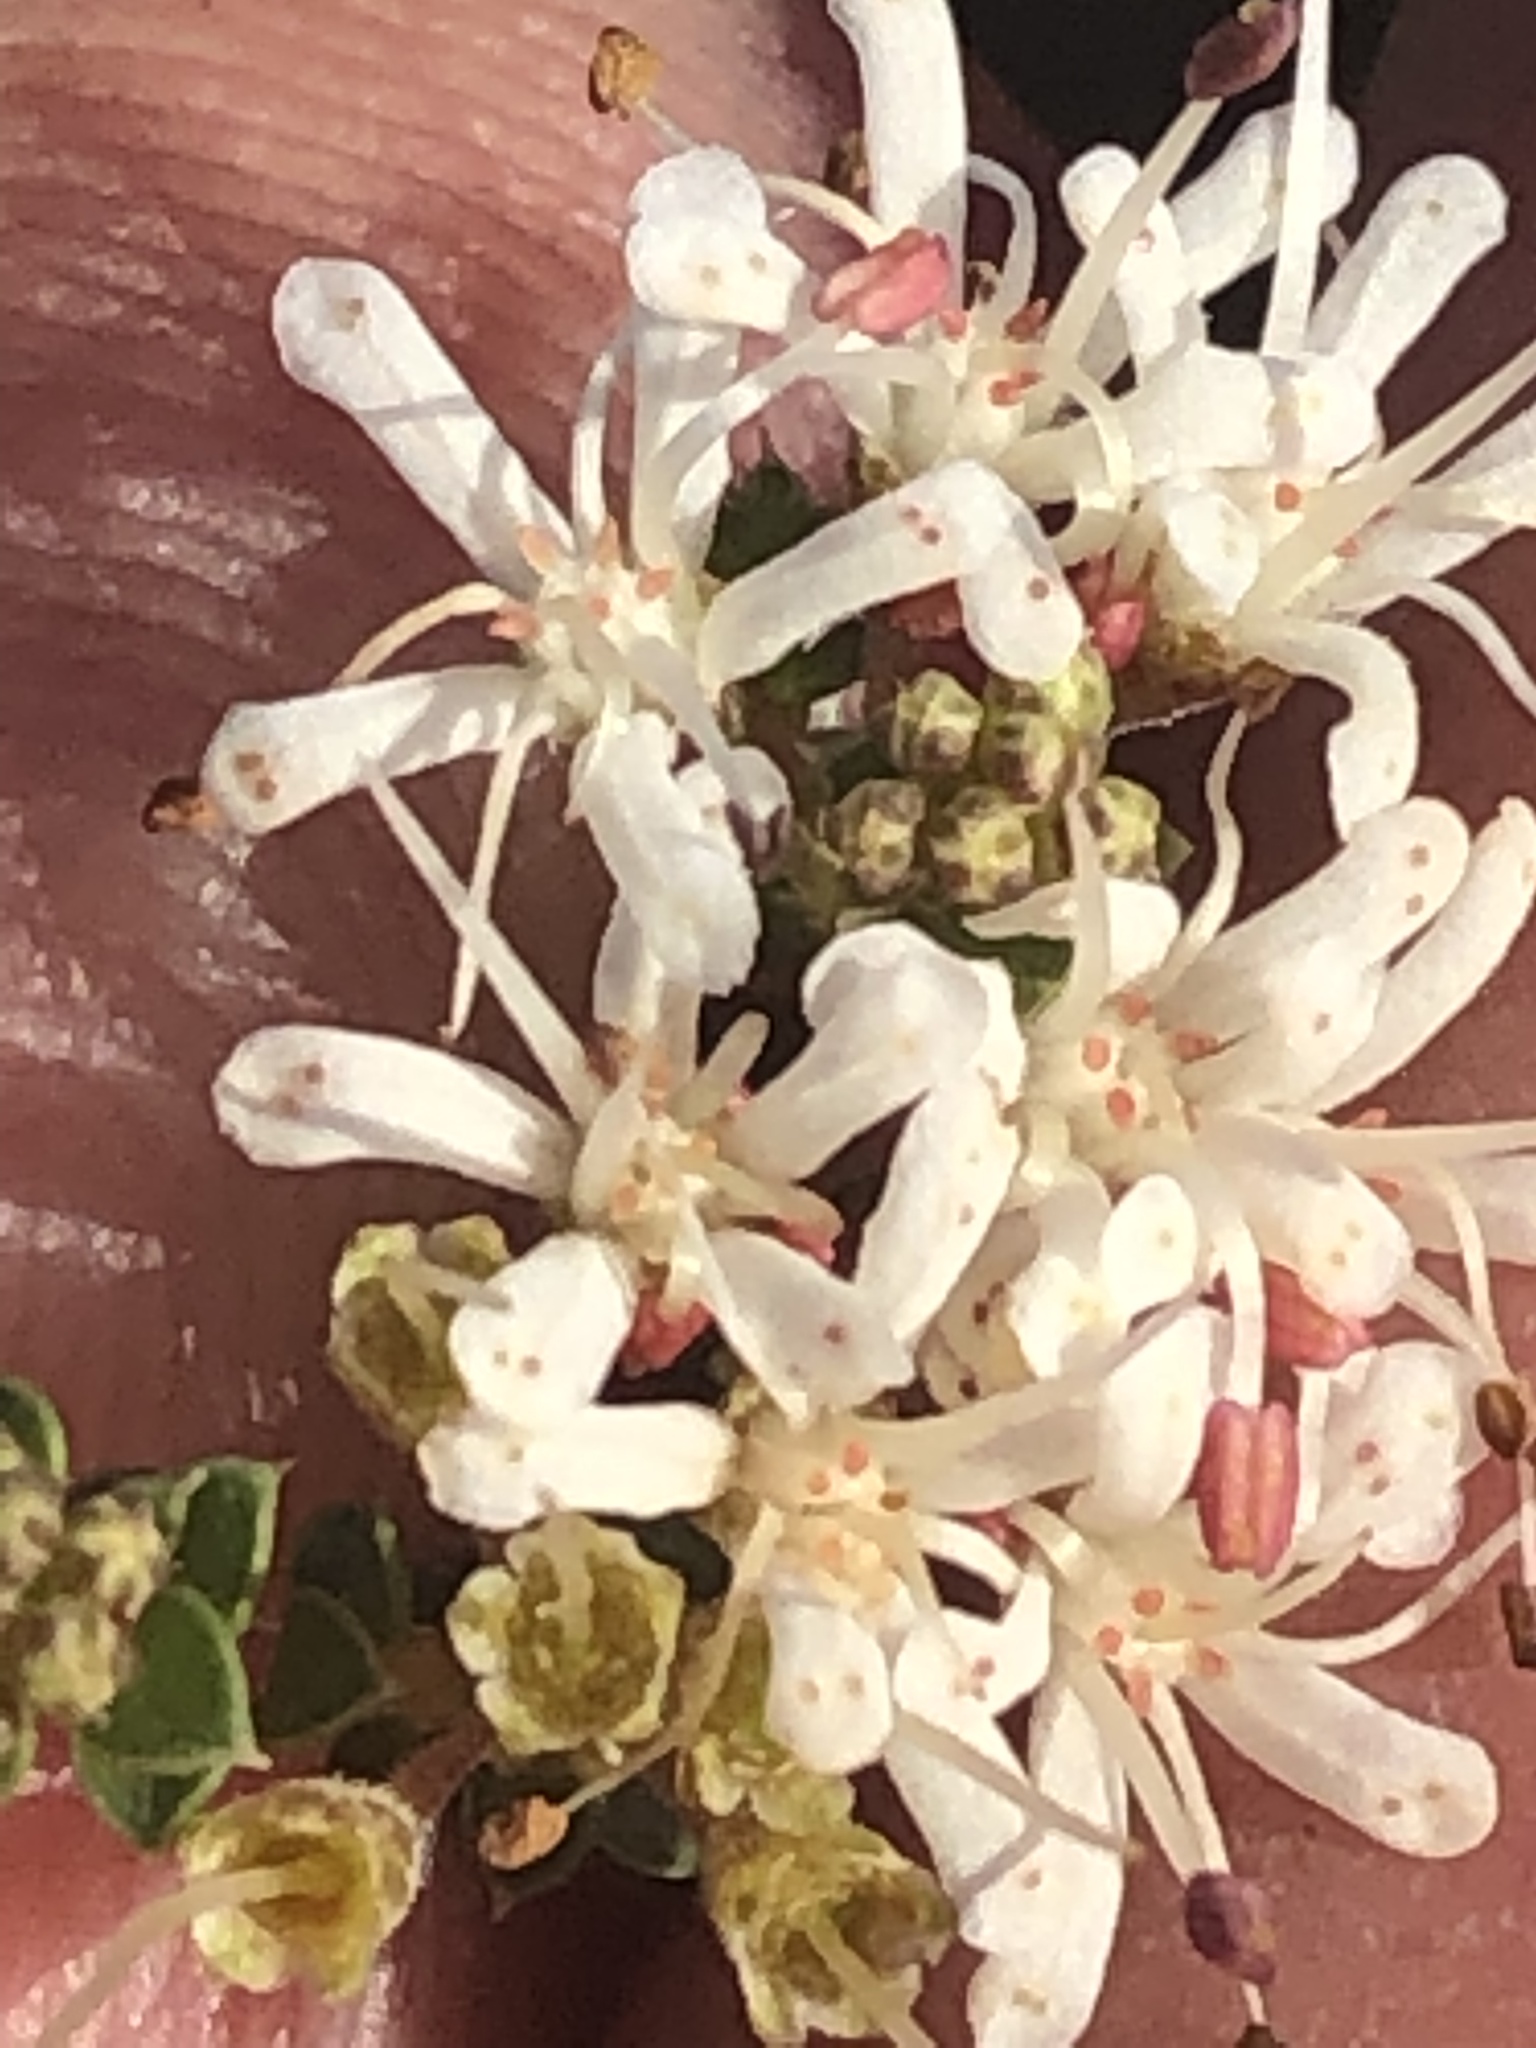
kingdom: Plantae
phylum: Tracheophyta
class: Magnoliopsida
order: Sapindales
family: Rutaceae
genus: Agathosma
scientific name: Agathosma recurvifolia
